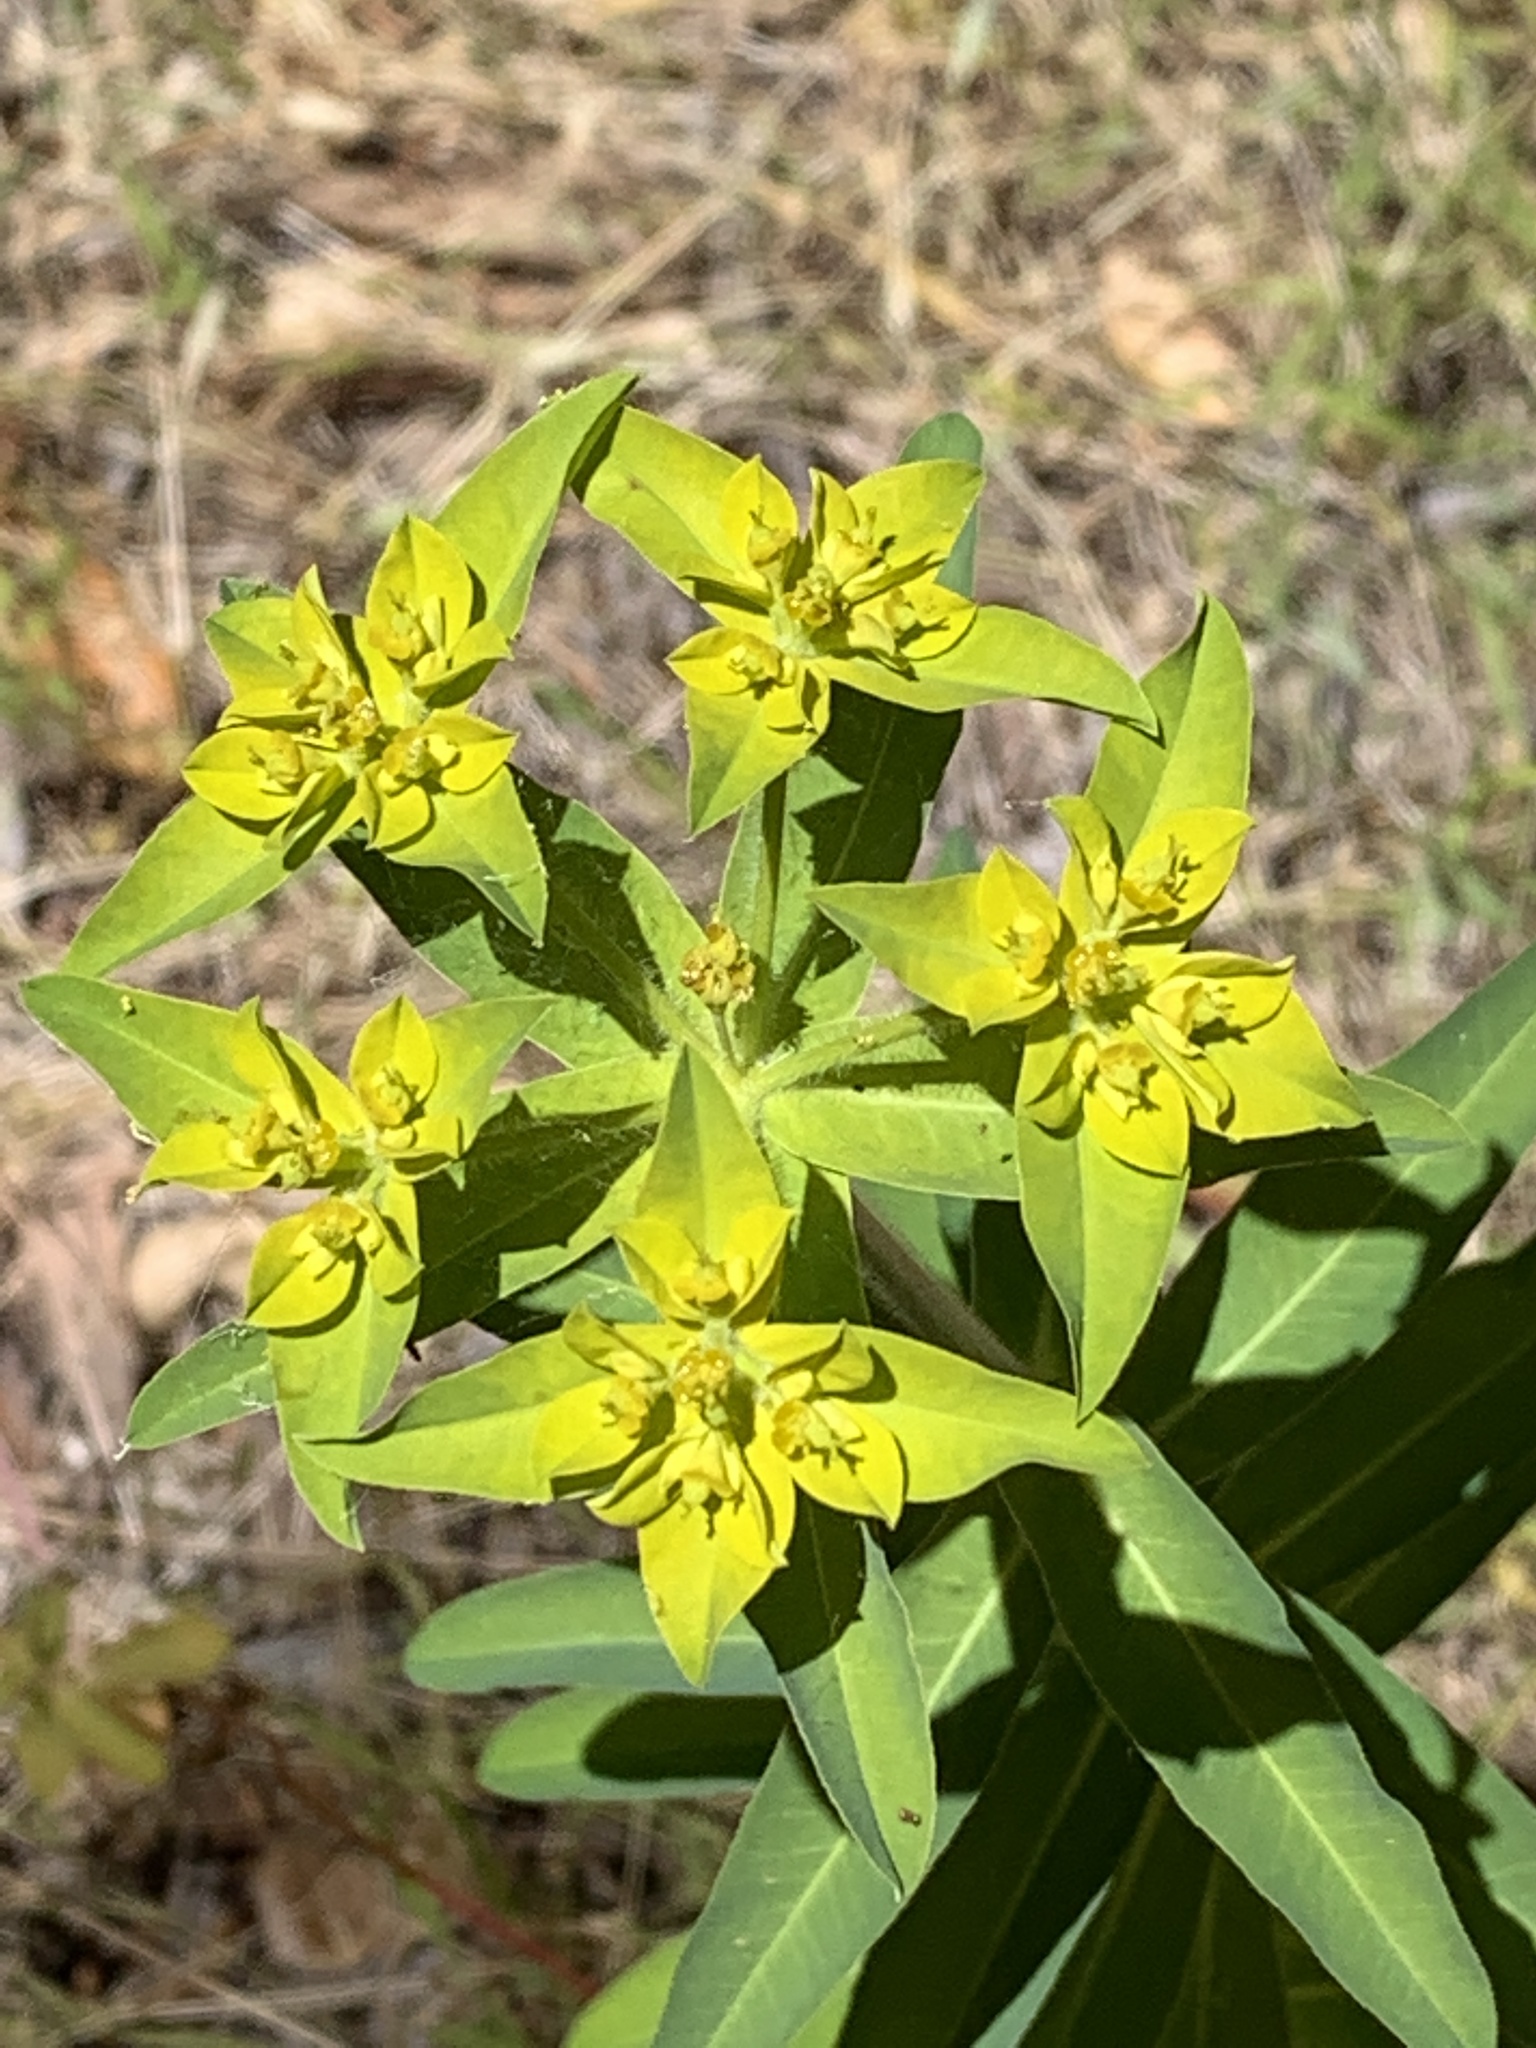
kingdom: Plantae
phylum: Tracheophyta
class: Magnoliopsida
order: Malpighiales
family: Euphorbiaceae
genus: Euphorbia
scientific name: Euphorbia oblongata
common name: Balkan spurge
